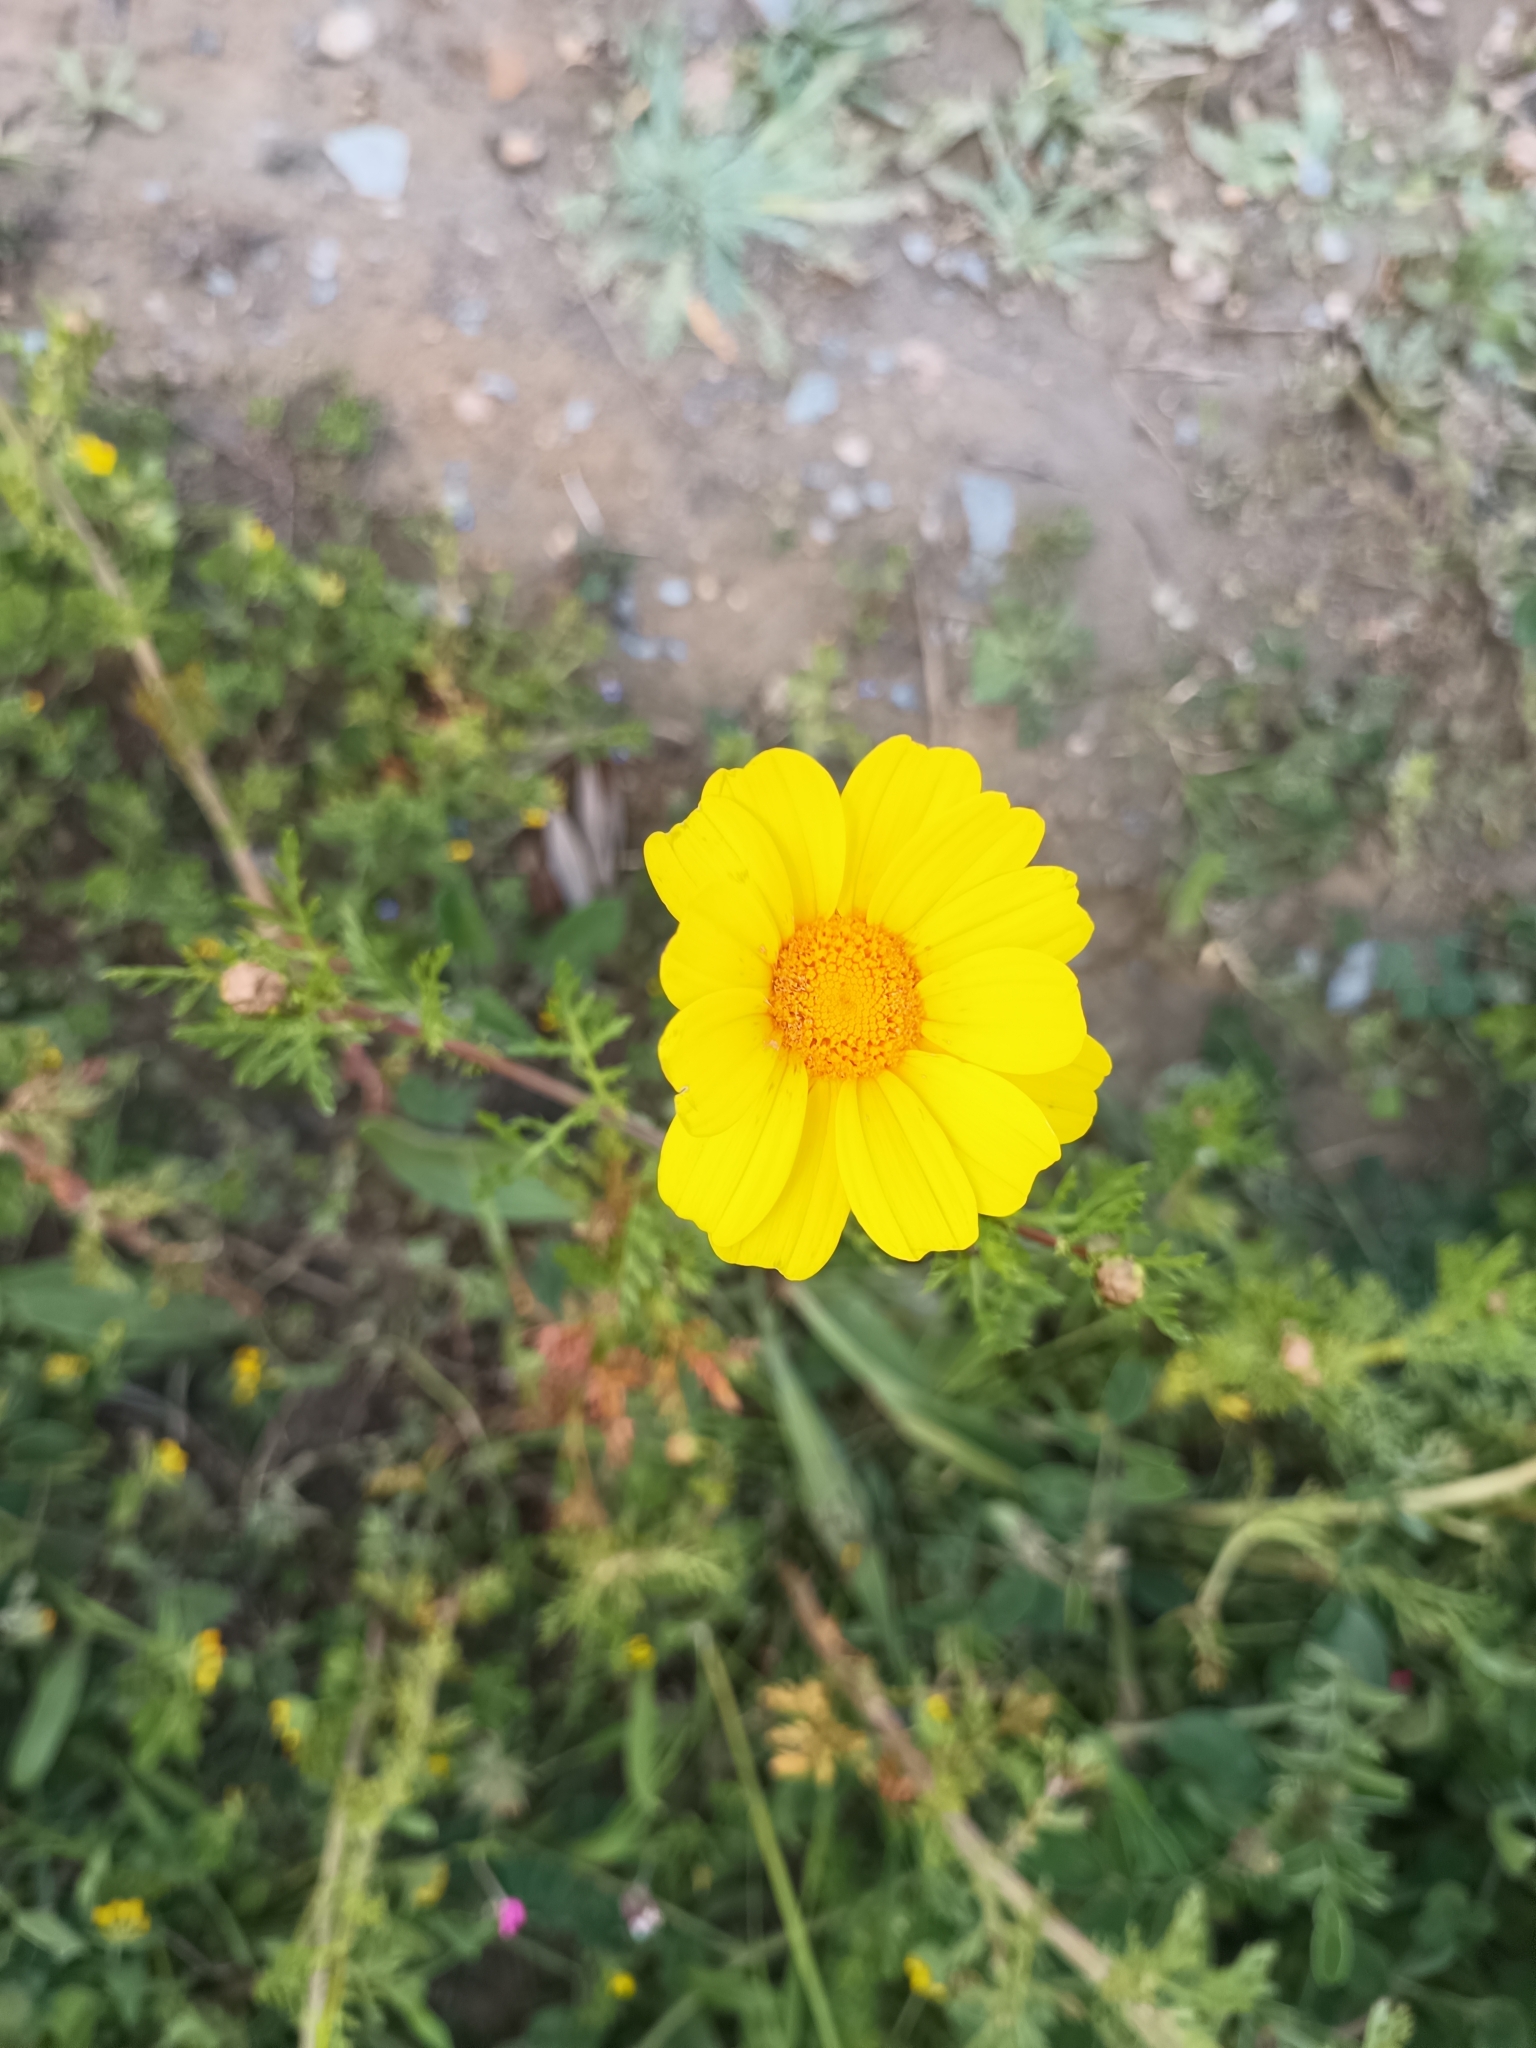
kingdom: Plantae
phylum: Tracheophyta
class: Magnoliopsida
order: Asterales
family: Asteraceae
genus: Glebionis
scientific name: Glebionis coronaria
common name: Crowndaisy
